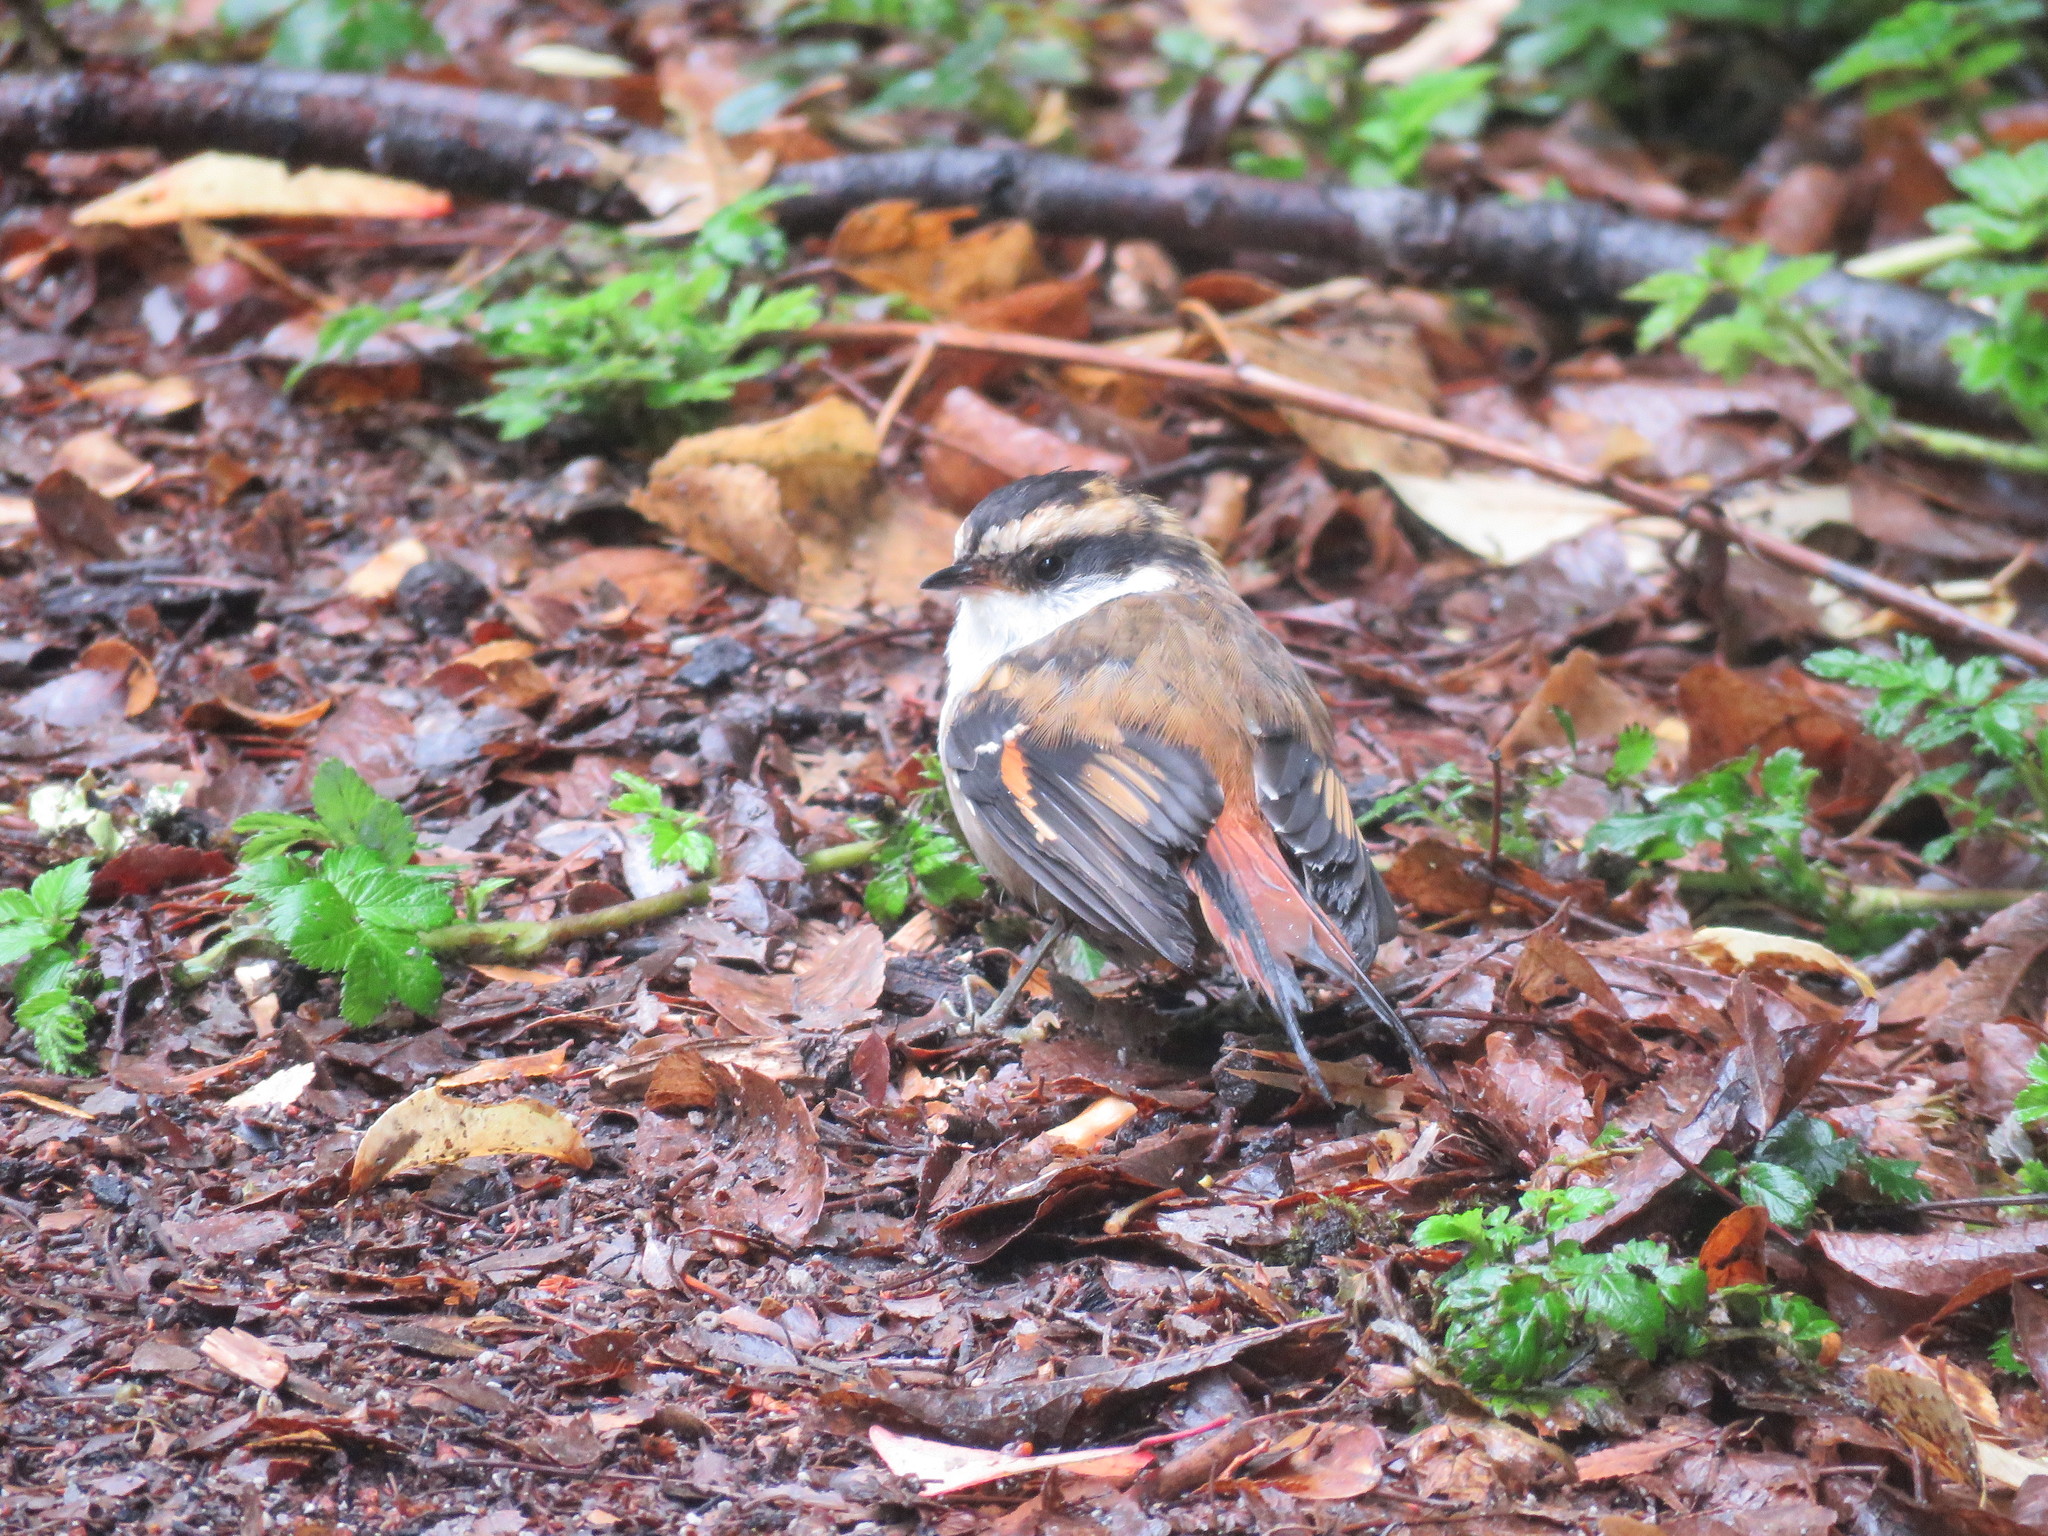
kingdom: Animalia
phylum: Chordata
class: Aves
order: Passeriformes
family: Furnariidae
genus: Aphrastura
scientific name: Aphrastura spinicauda
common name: Thorn-tailed rayadito
